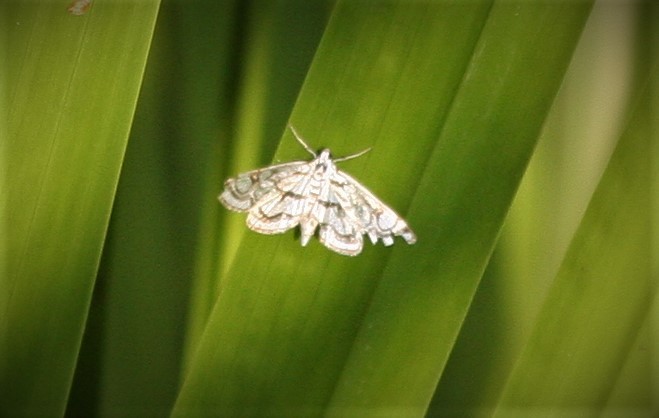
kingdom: Animalia
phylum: Arthropoda
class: Insecta
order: Lepidoptera
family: Crambidae
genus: Nymphula
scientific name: Nymphula nitidulata
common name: Beautiful china mark
